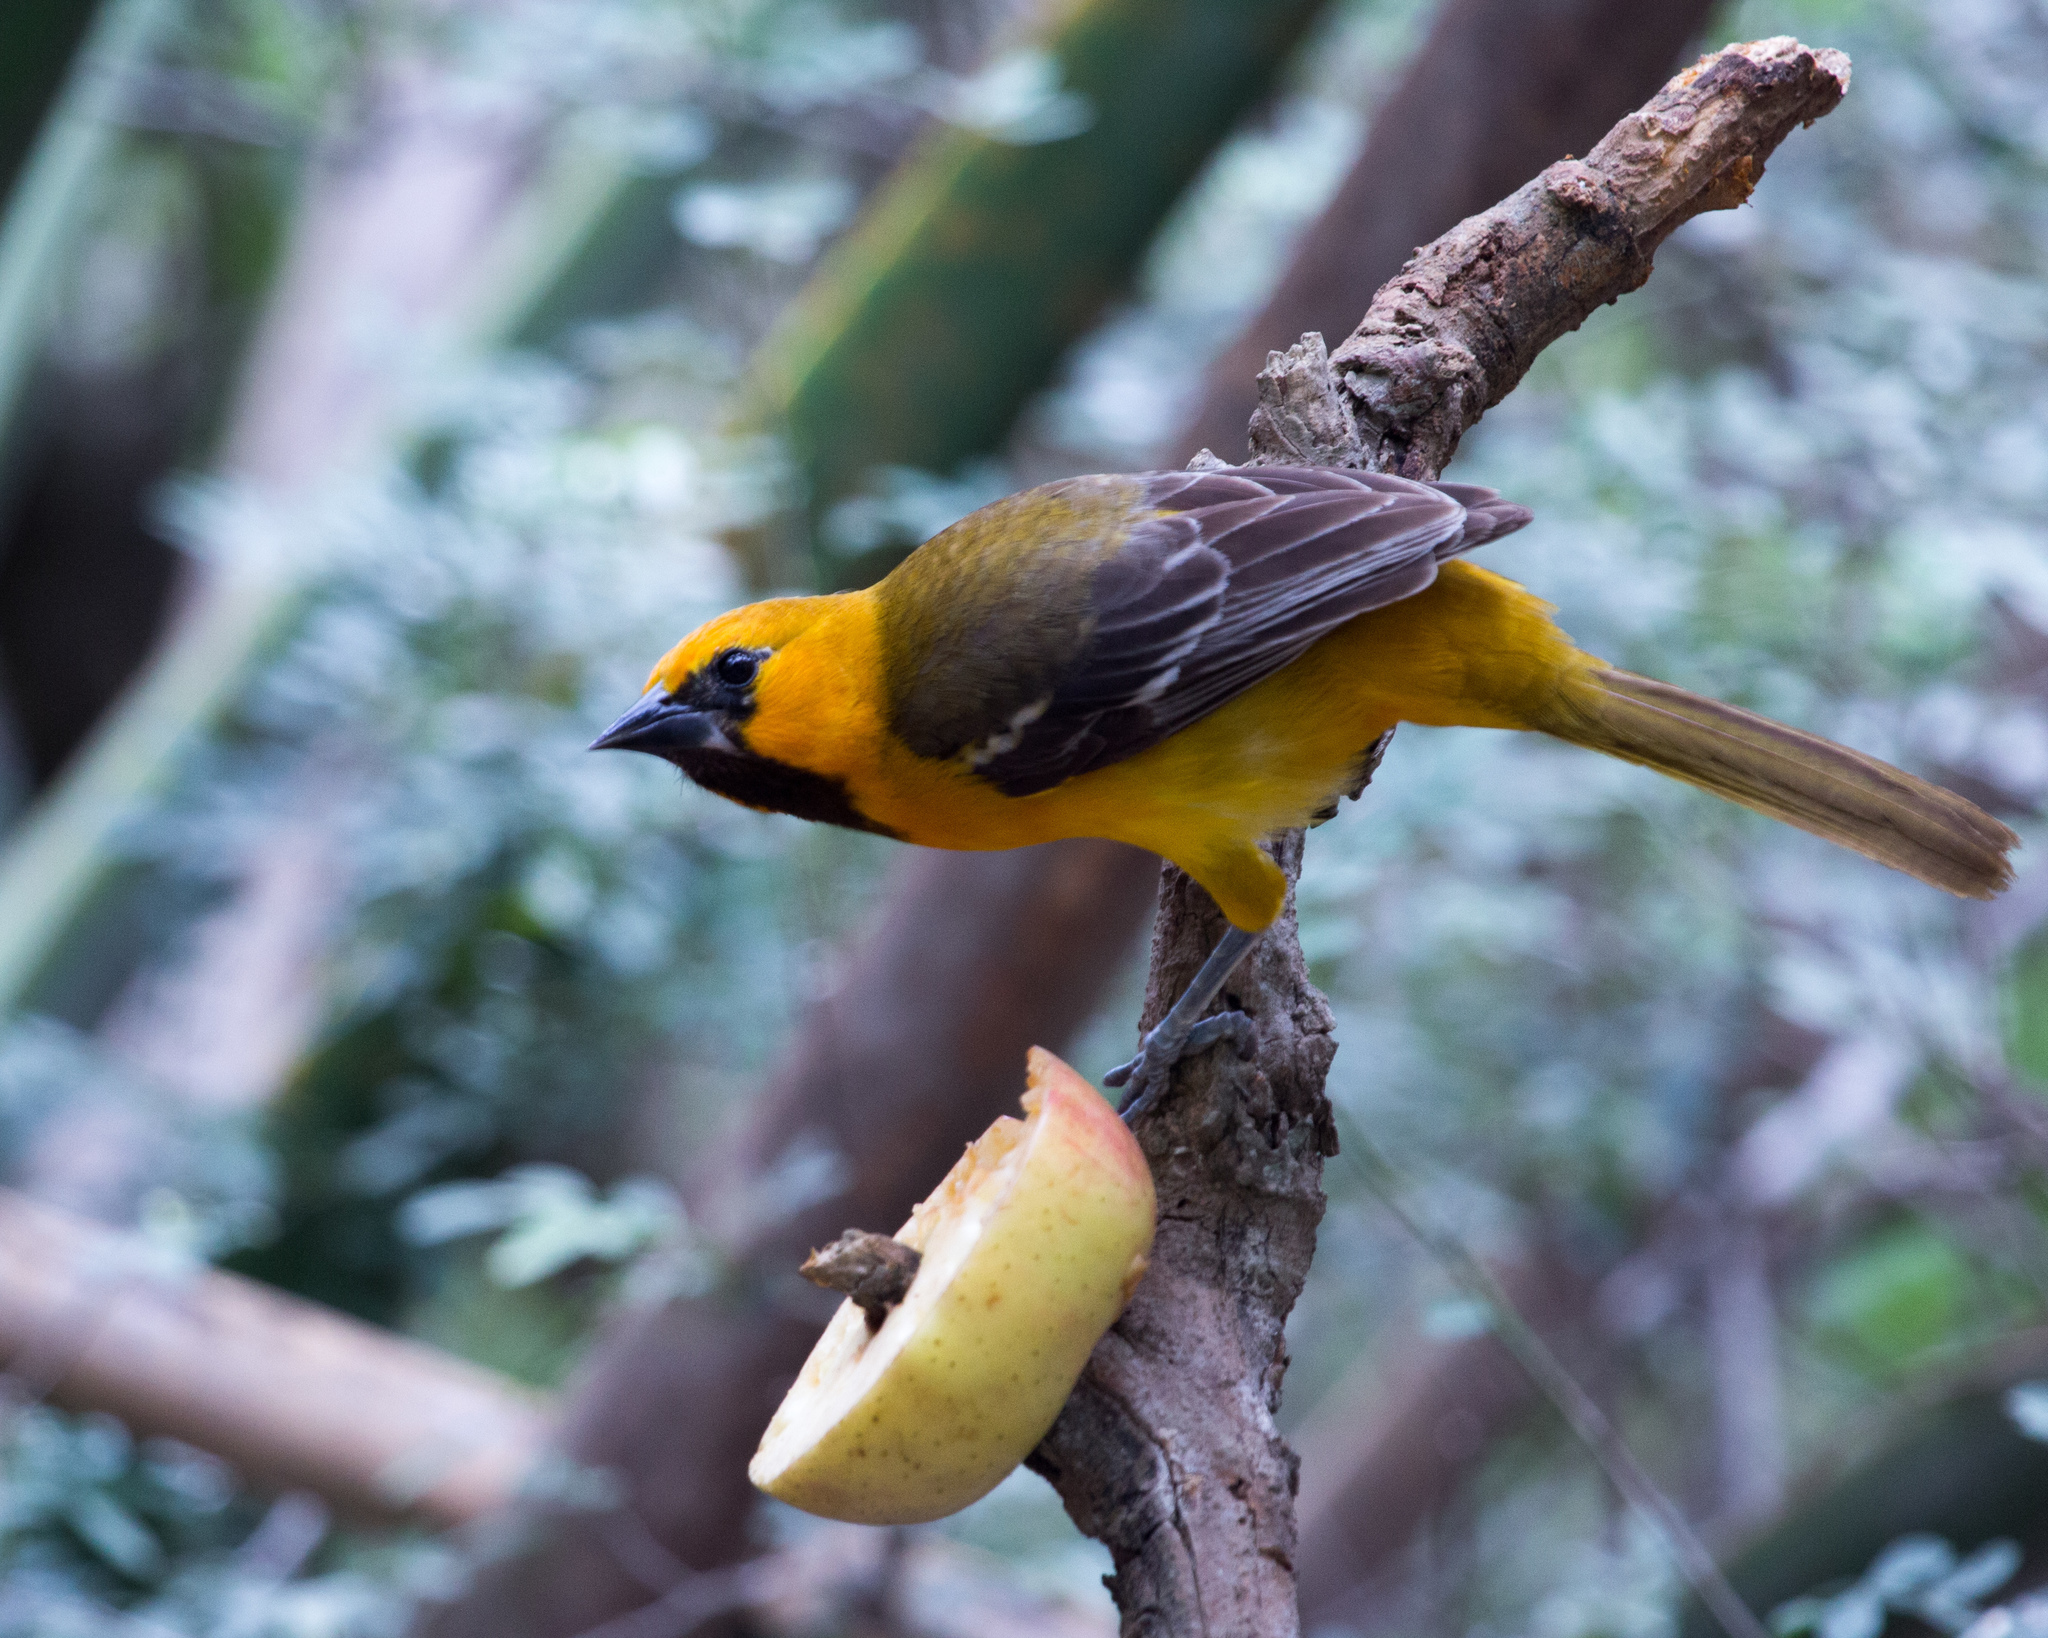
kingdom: Animalia
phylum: Chordata
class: Aves
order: Passeriformes
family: Icteridae
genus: Icterus
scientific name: Icterus gularis
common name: Altamira oriole
